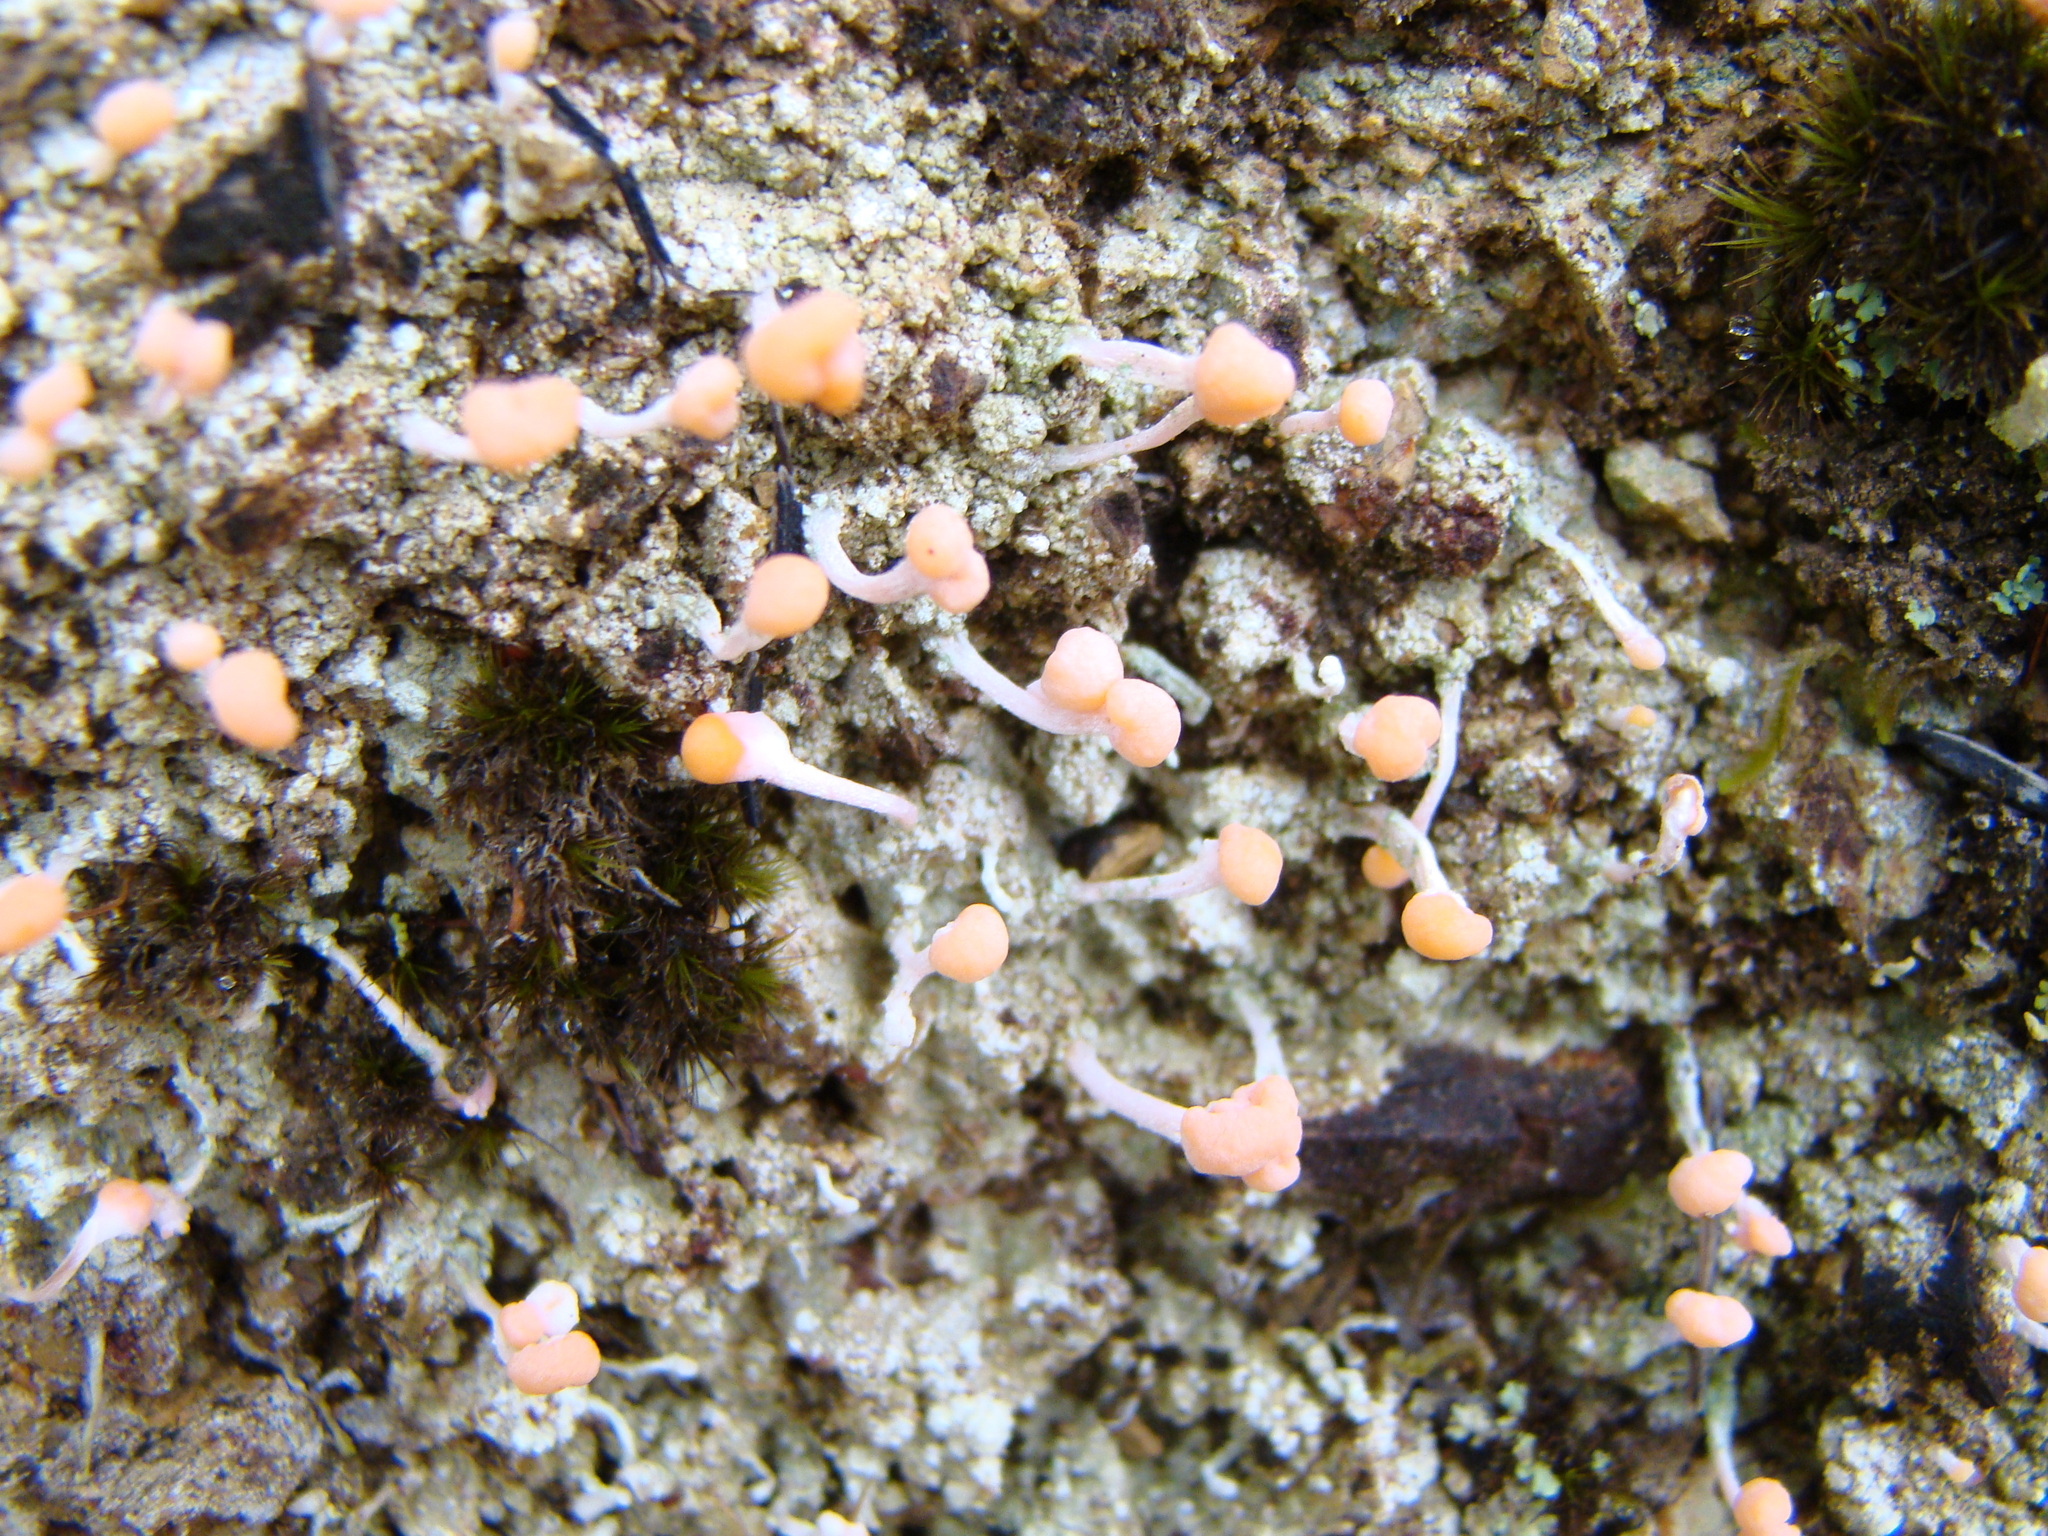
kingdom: Fungi
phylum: Ascomycota
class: Lecanoromycetes
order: Pertusariales
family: Icmadophilaceae
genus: Dibaeis
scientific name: Dibaeis arcuata
